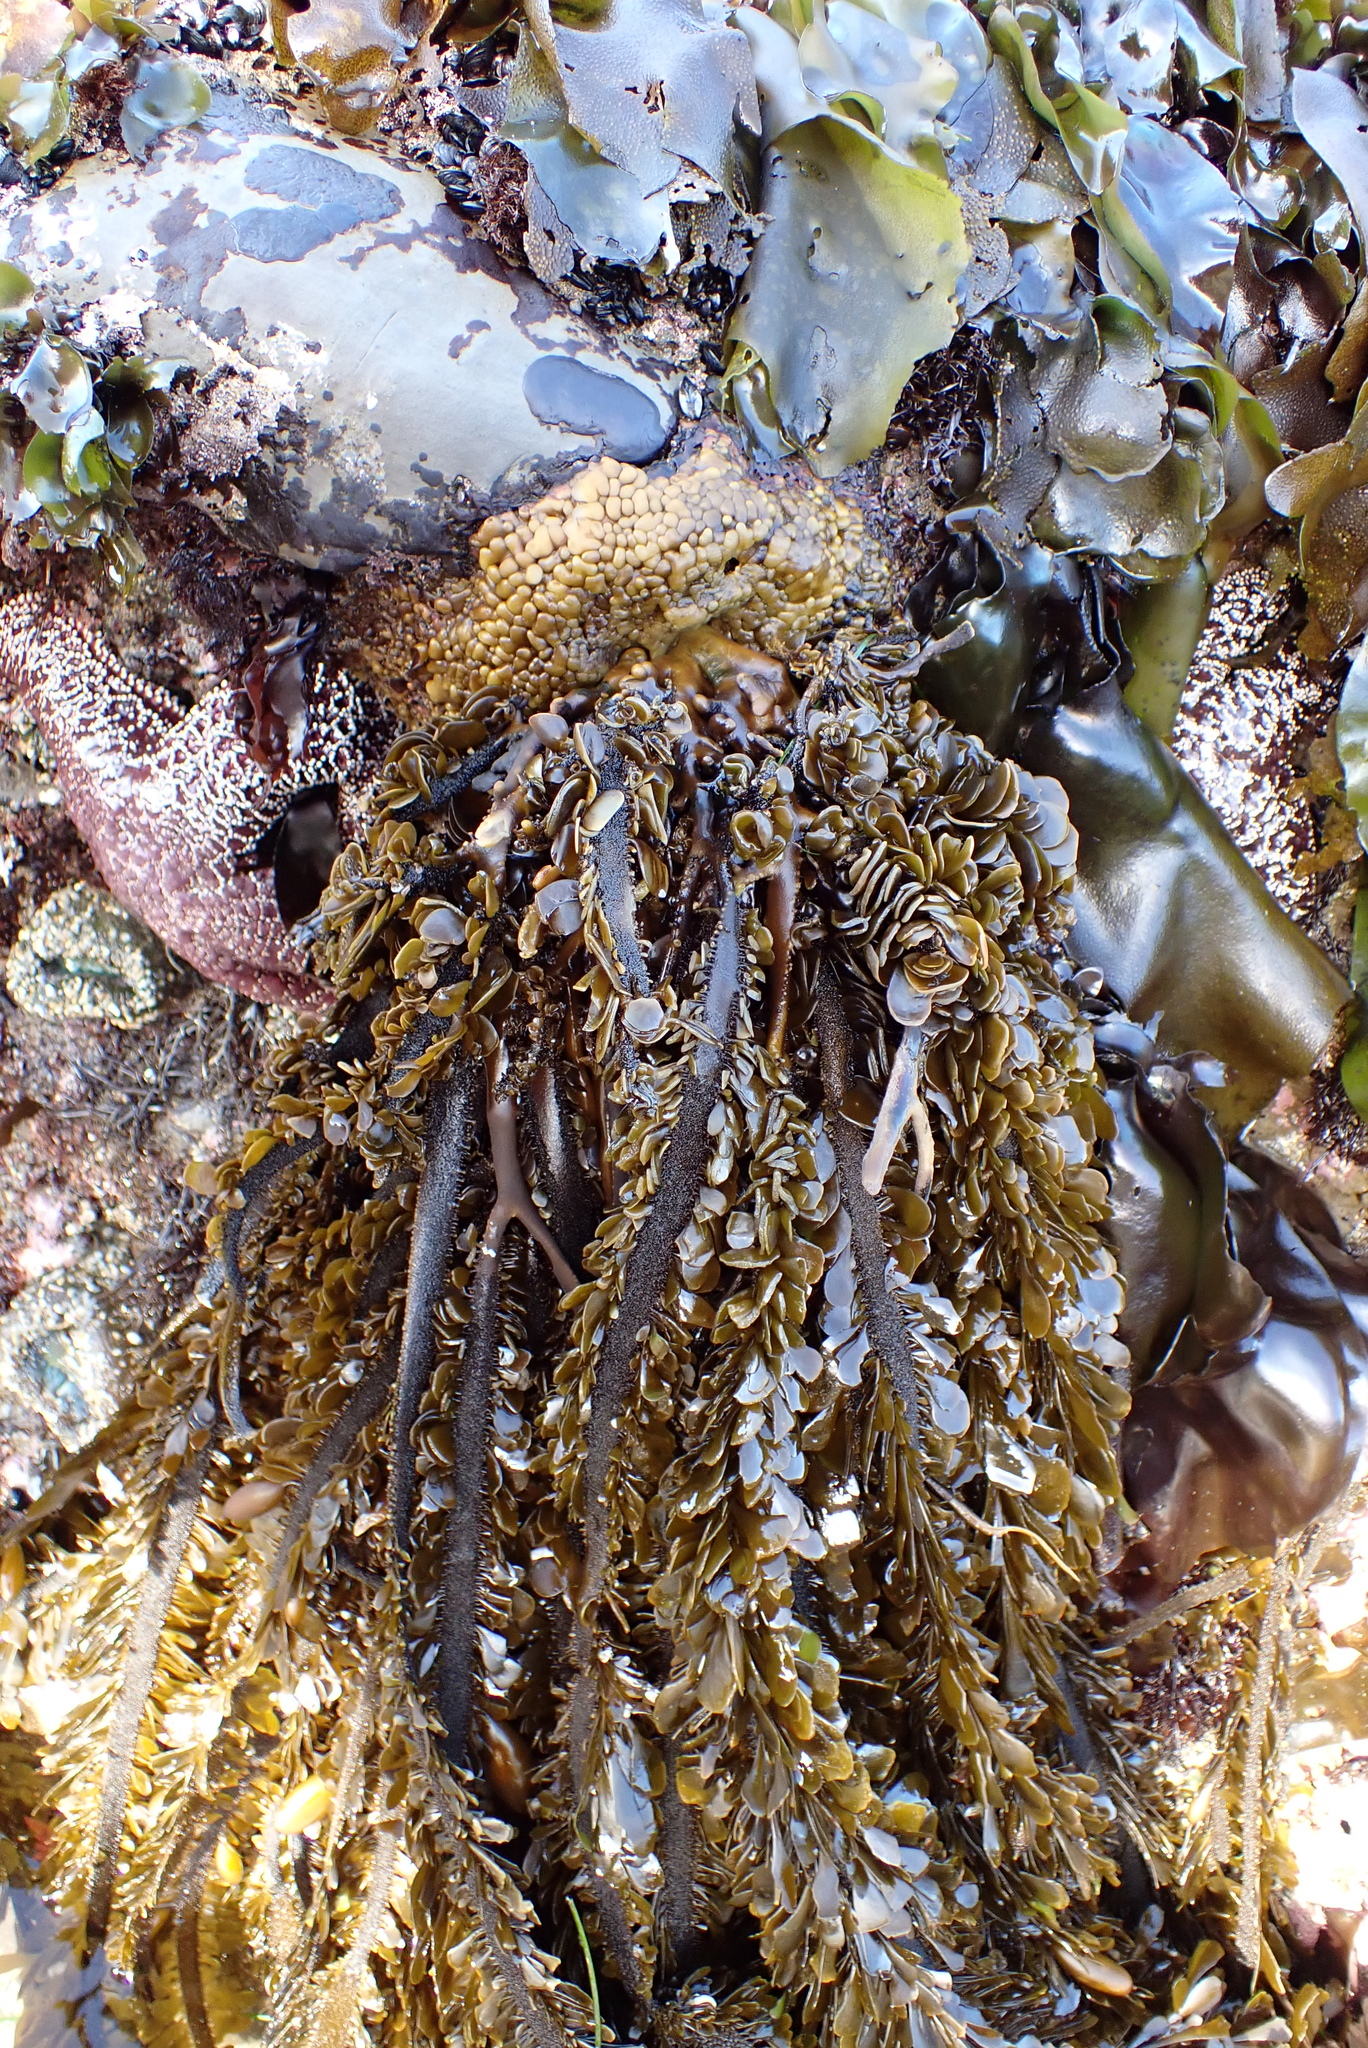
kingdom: Chromista
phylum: Ochrophyta
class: Phaeophyceae
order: Laminariales
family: Lessoniaceae
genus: Egregia
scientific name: Egregia menziesii
